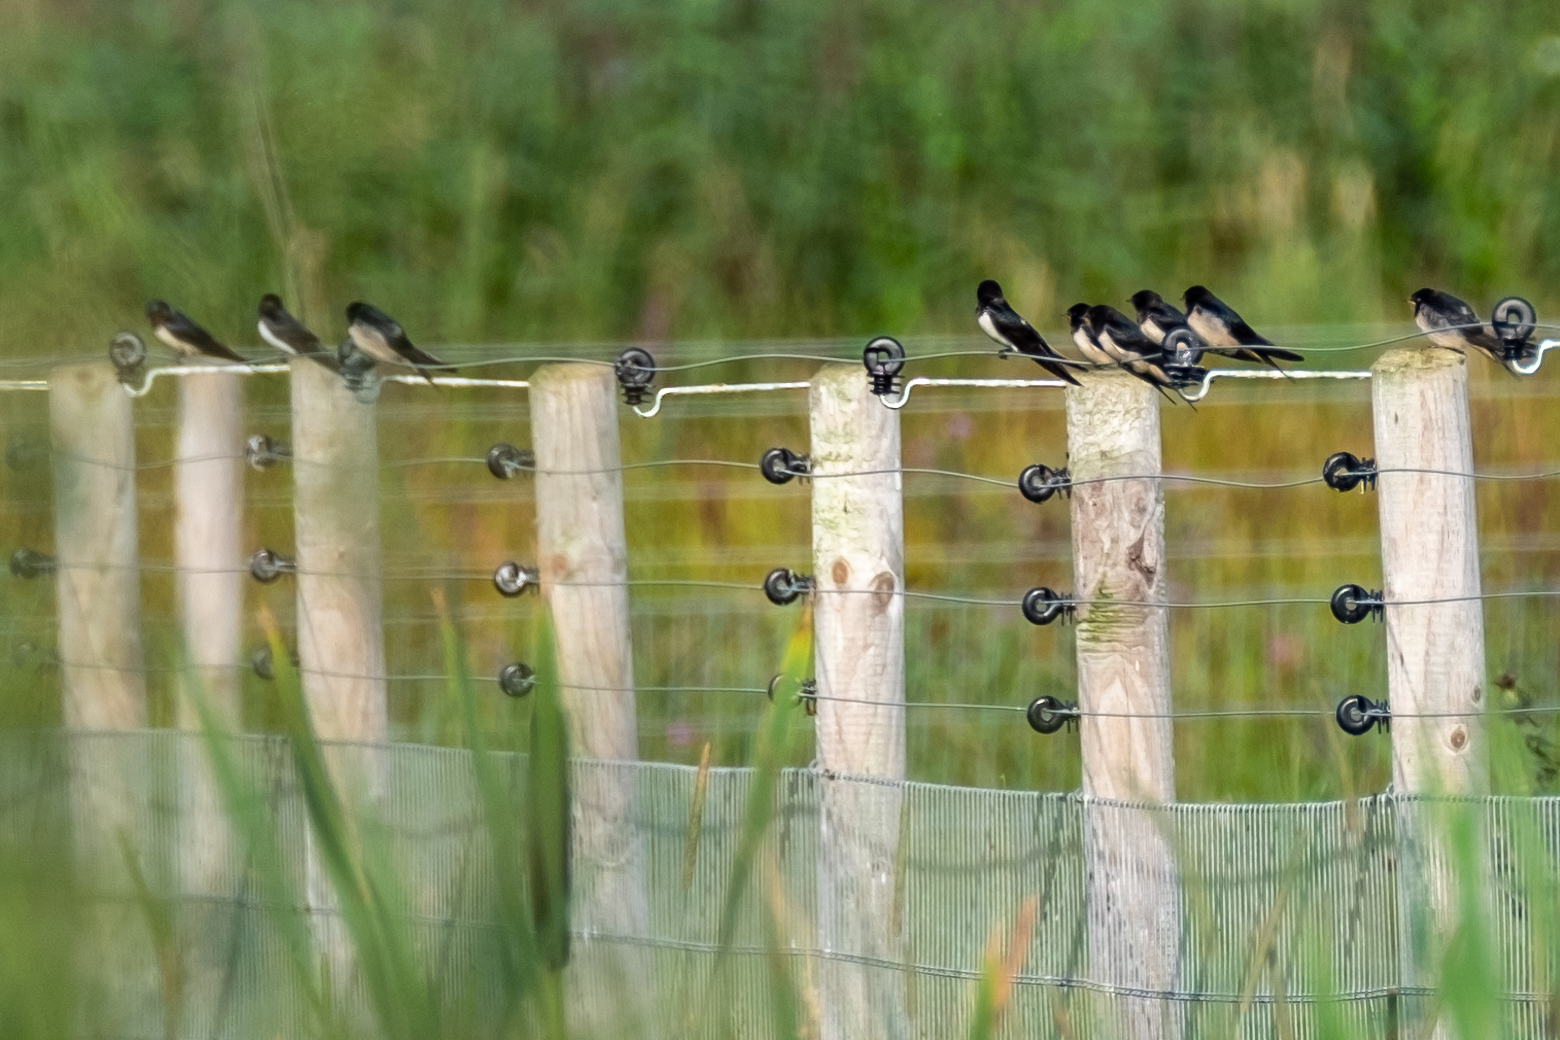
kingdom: Animalia
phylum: Chordata
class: Aves
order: Passeriformes
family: Hirundinidae
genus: Hirundo
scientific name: Hirundo rustica
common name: Barn swallow
